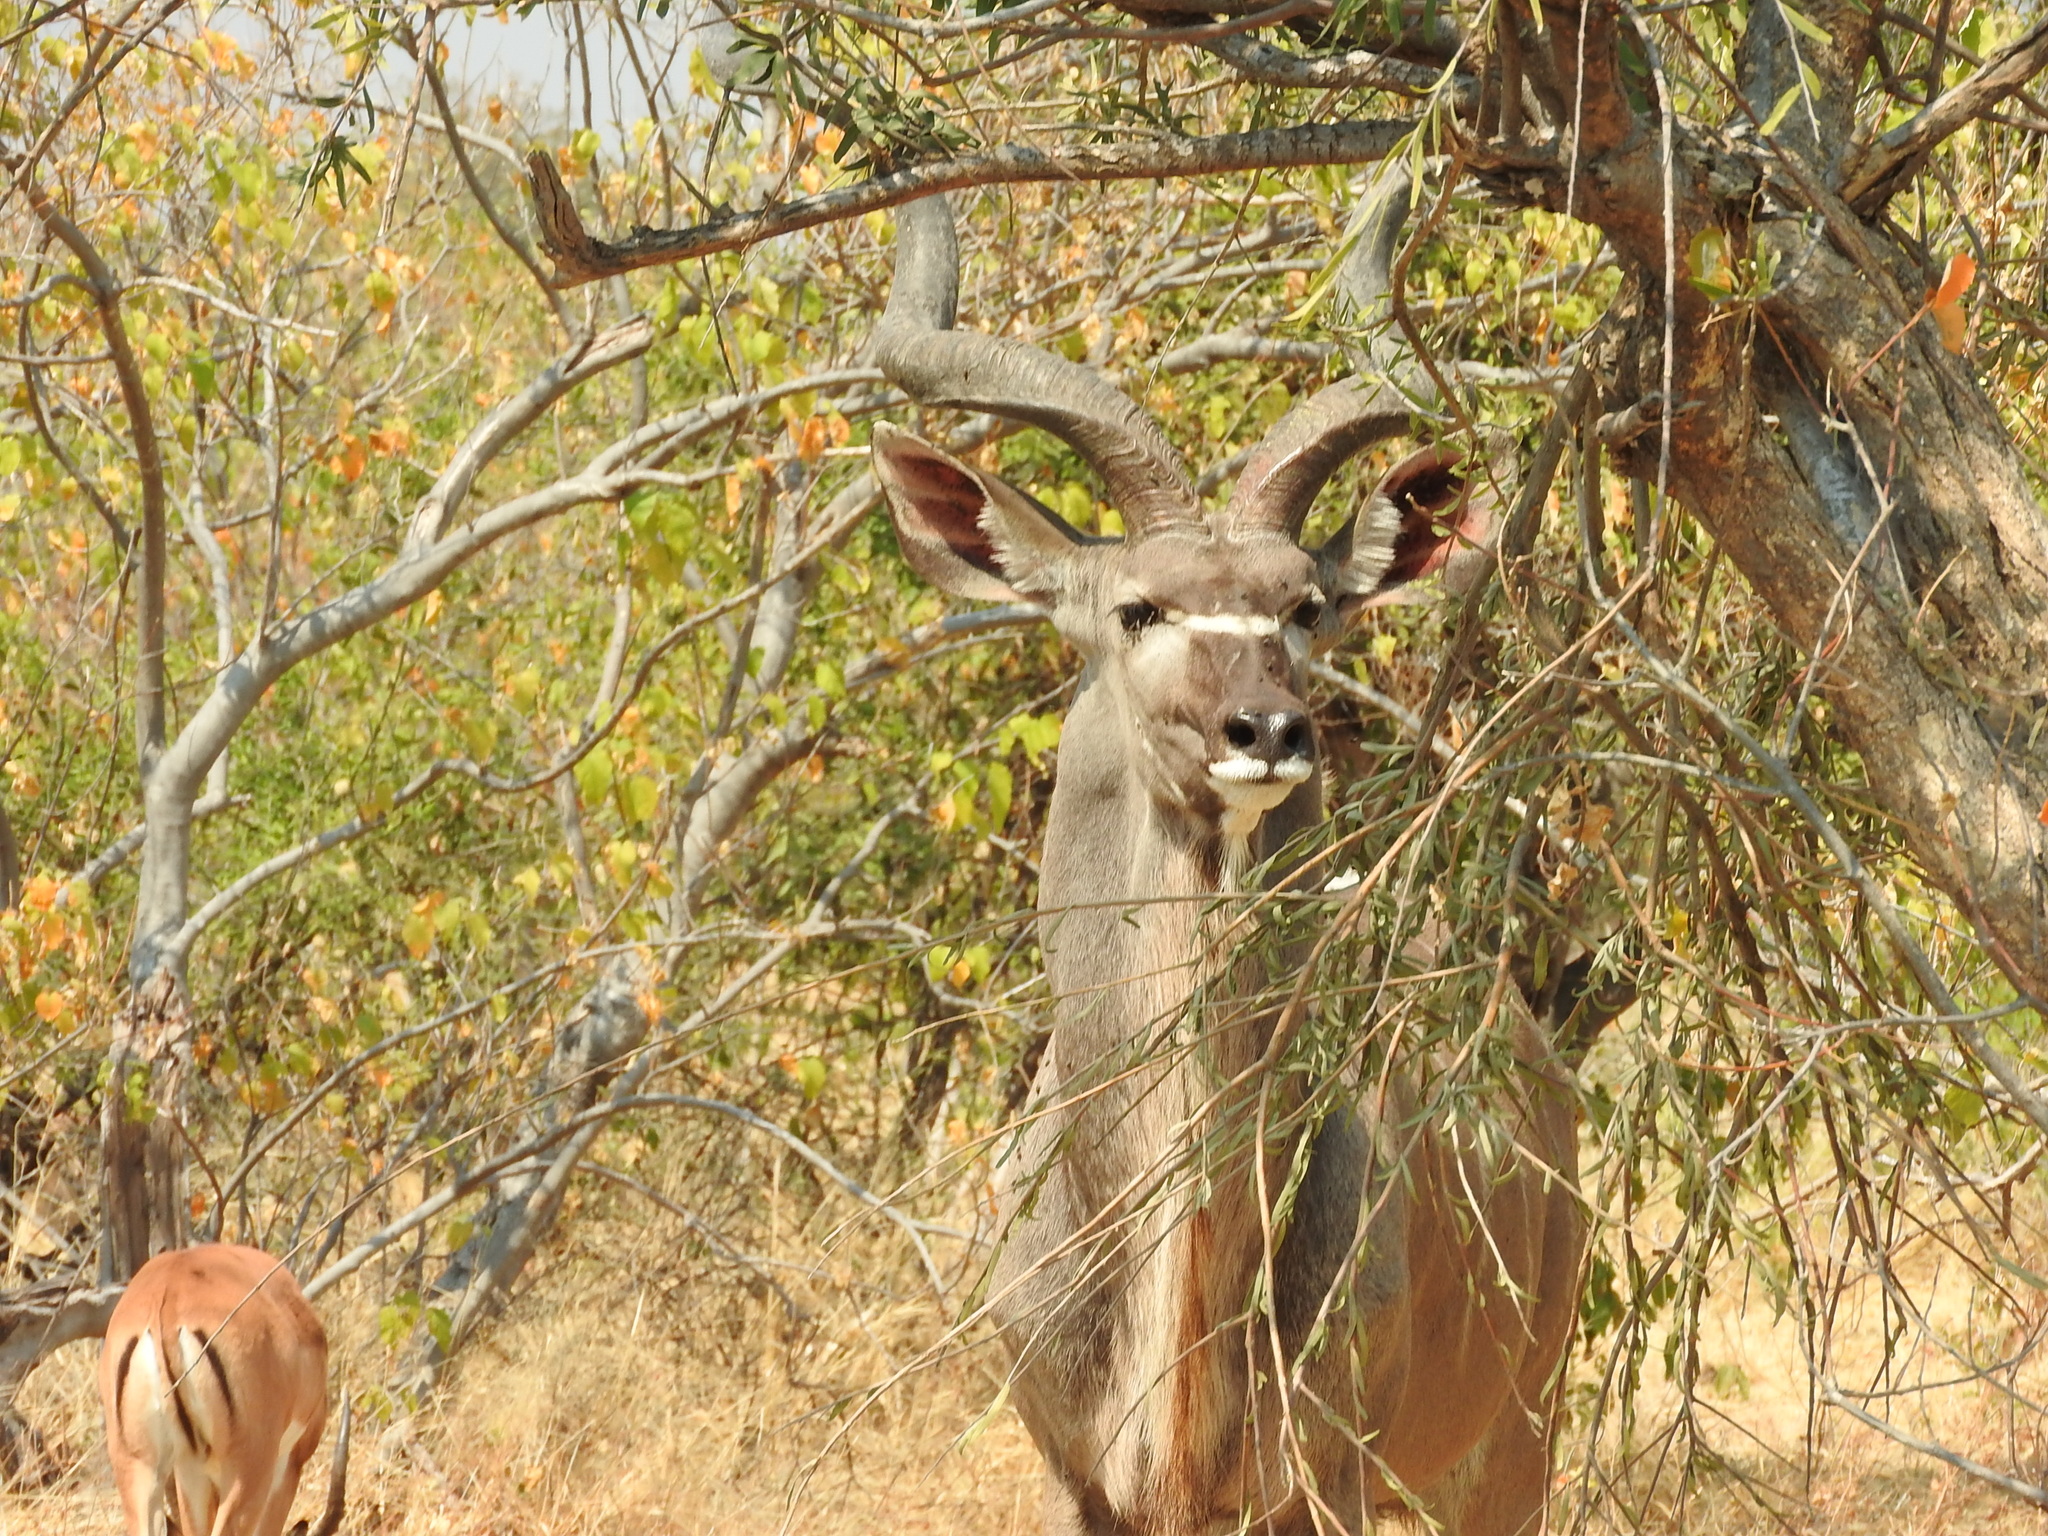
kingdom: Animalia
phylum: Chordata
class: Mammalia
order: Artiodactyla
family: Bovidae
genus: Tragelaphus
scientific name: Tragelaphus strepsiceros
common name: Greater kudu
